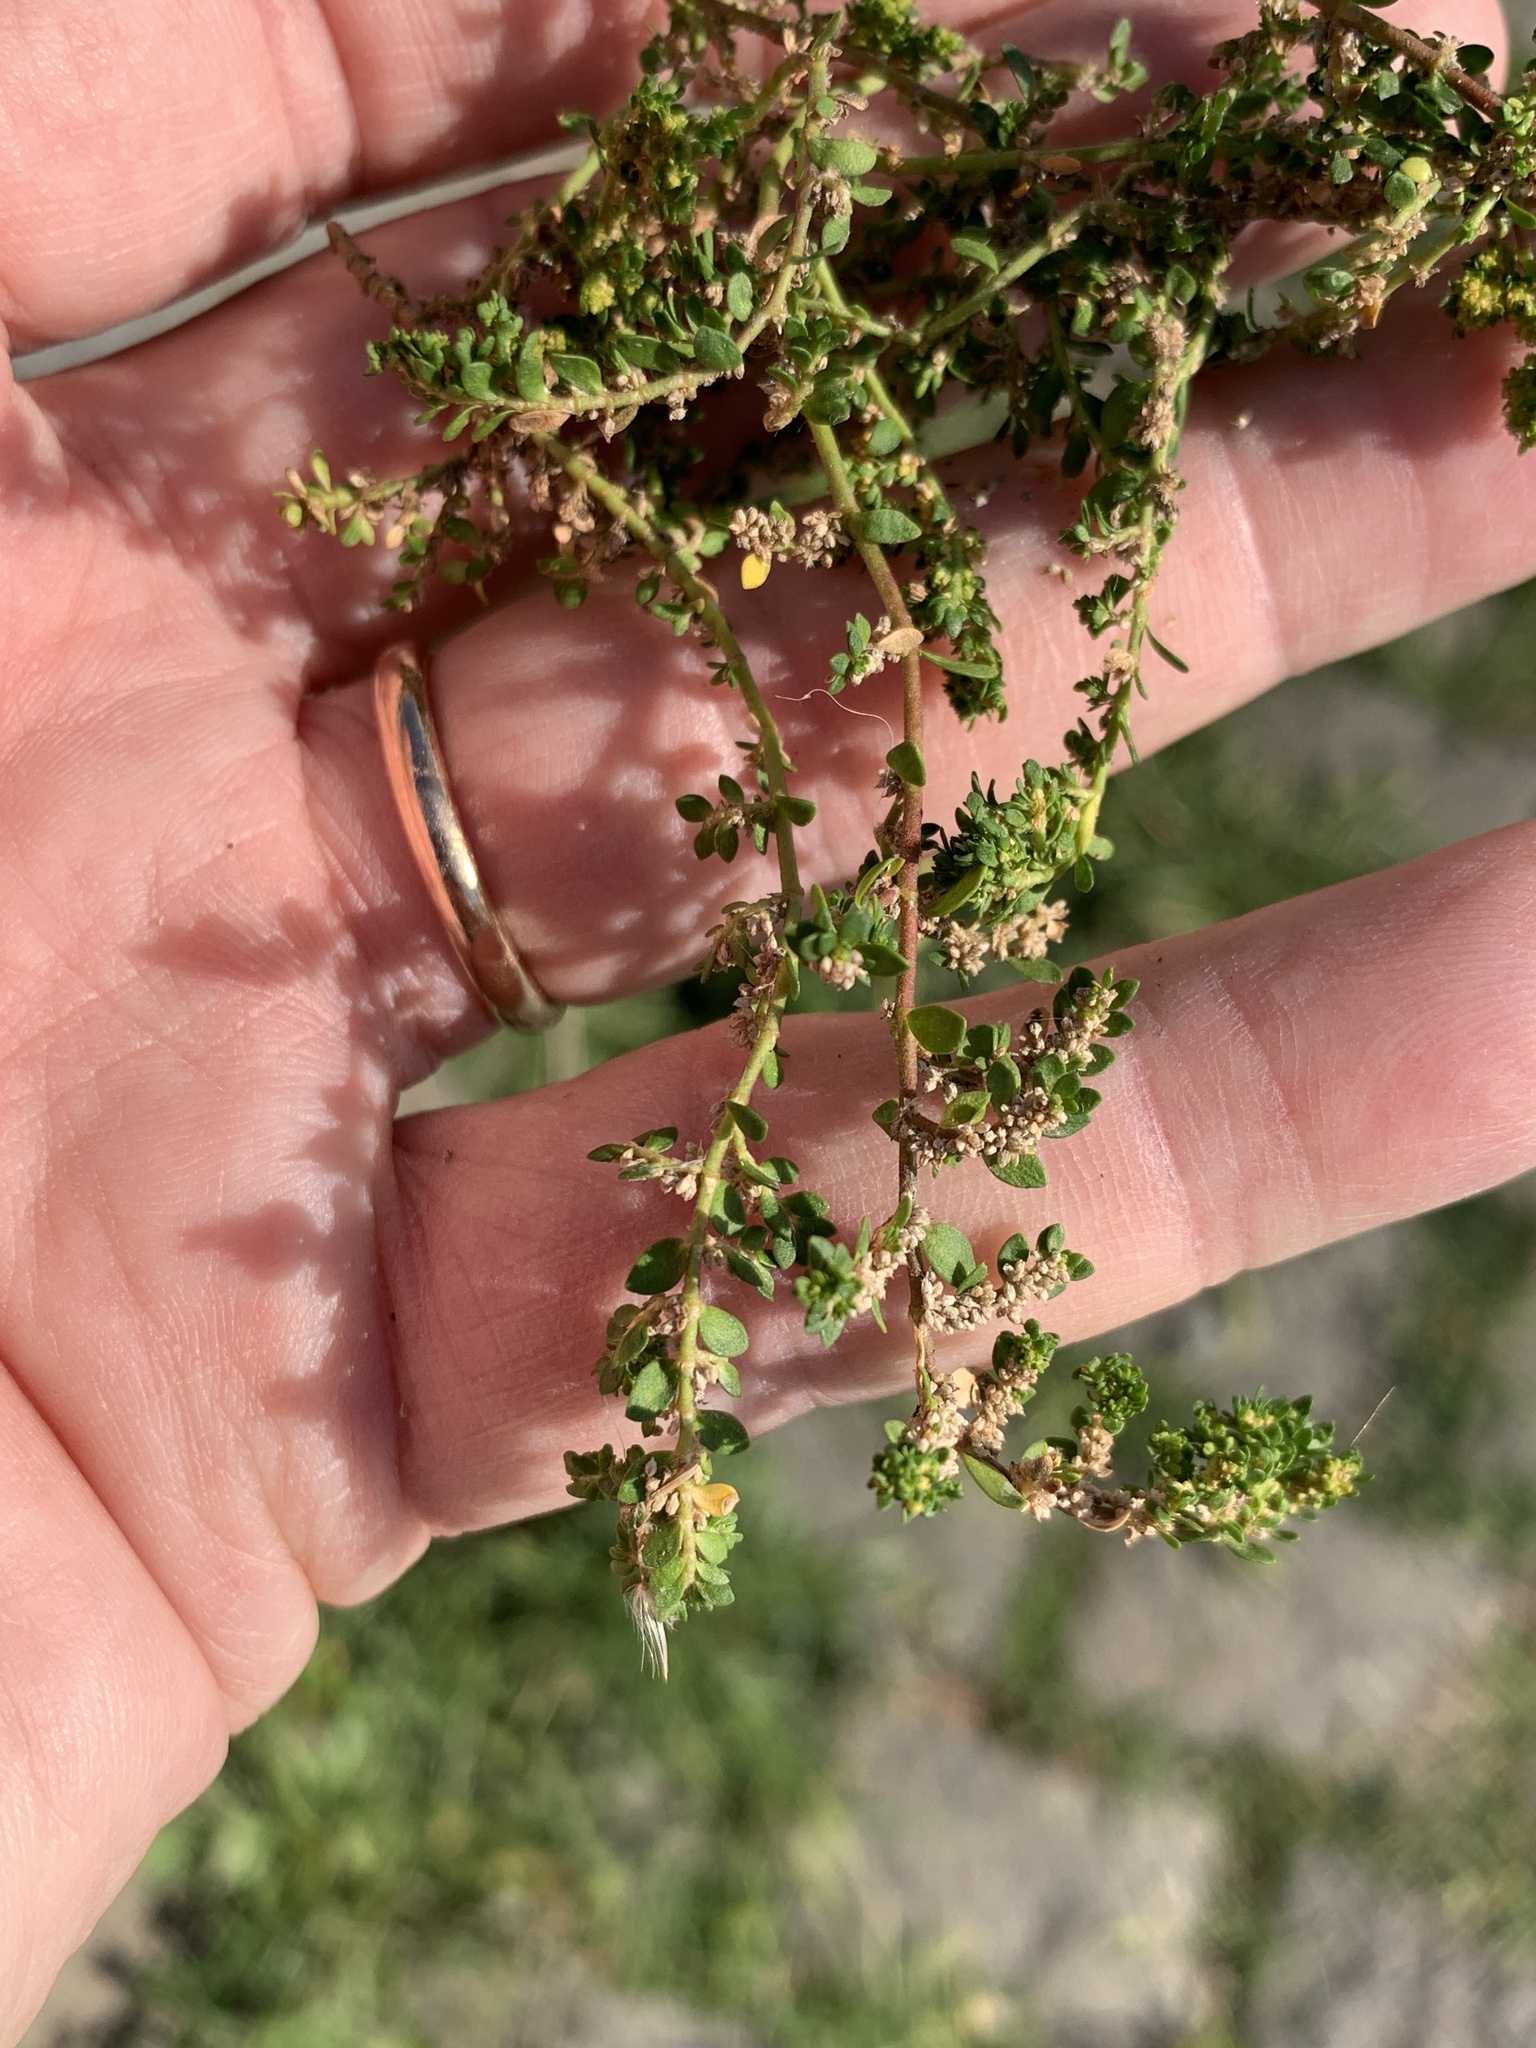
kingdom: Plantae
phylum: Tracheophyta
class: Magnoliopsida
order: Caryophyllales
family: Caryophyllaceae
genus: Herniaria
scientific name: Herniaria glabra
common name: Smooth rupturewort
